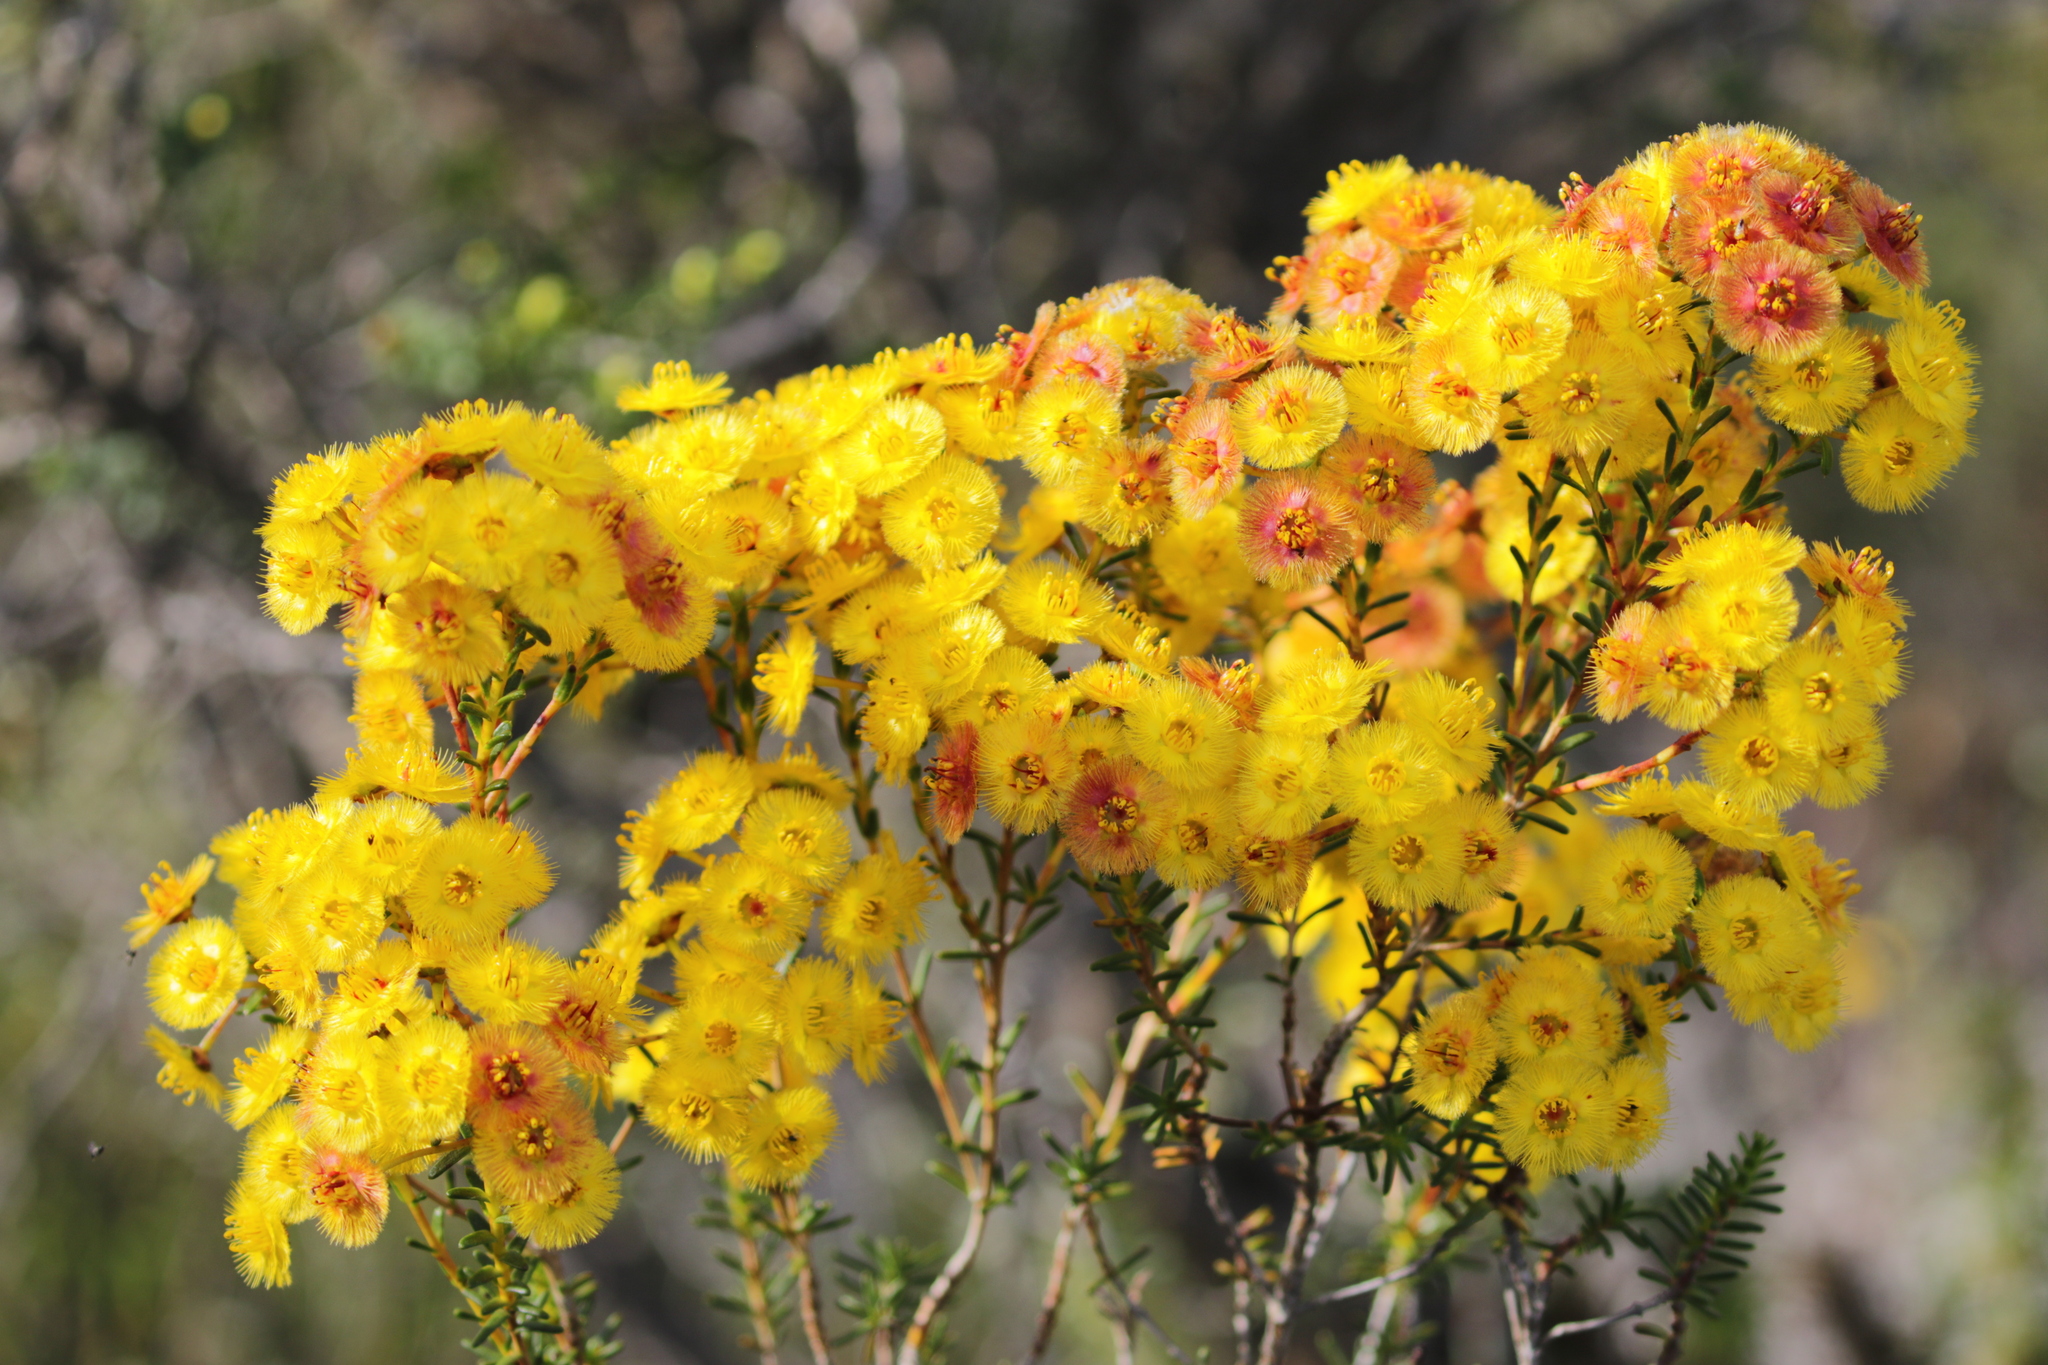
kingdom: Plantae
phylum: Tracheophyta
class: Magnoliopsida
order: Myrtales
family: Myrtaceae
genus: Verticordia
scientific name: Verticordia nobilis
